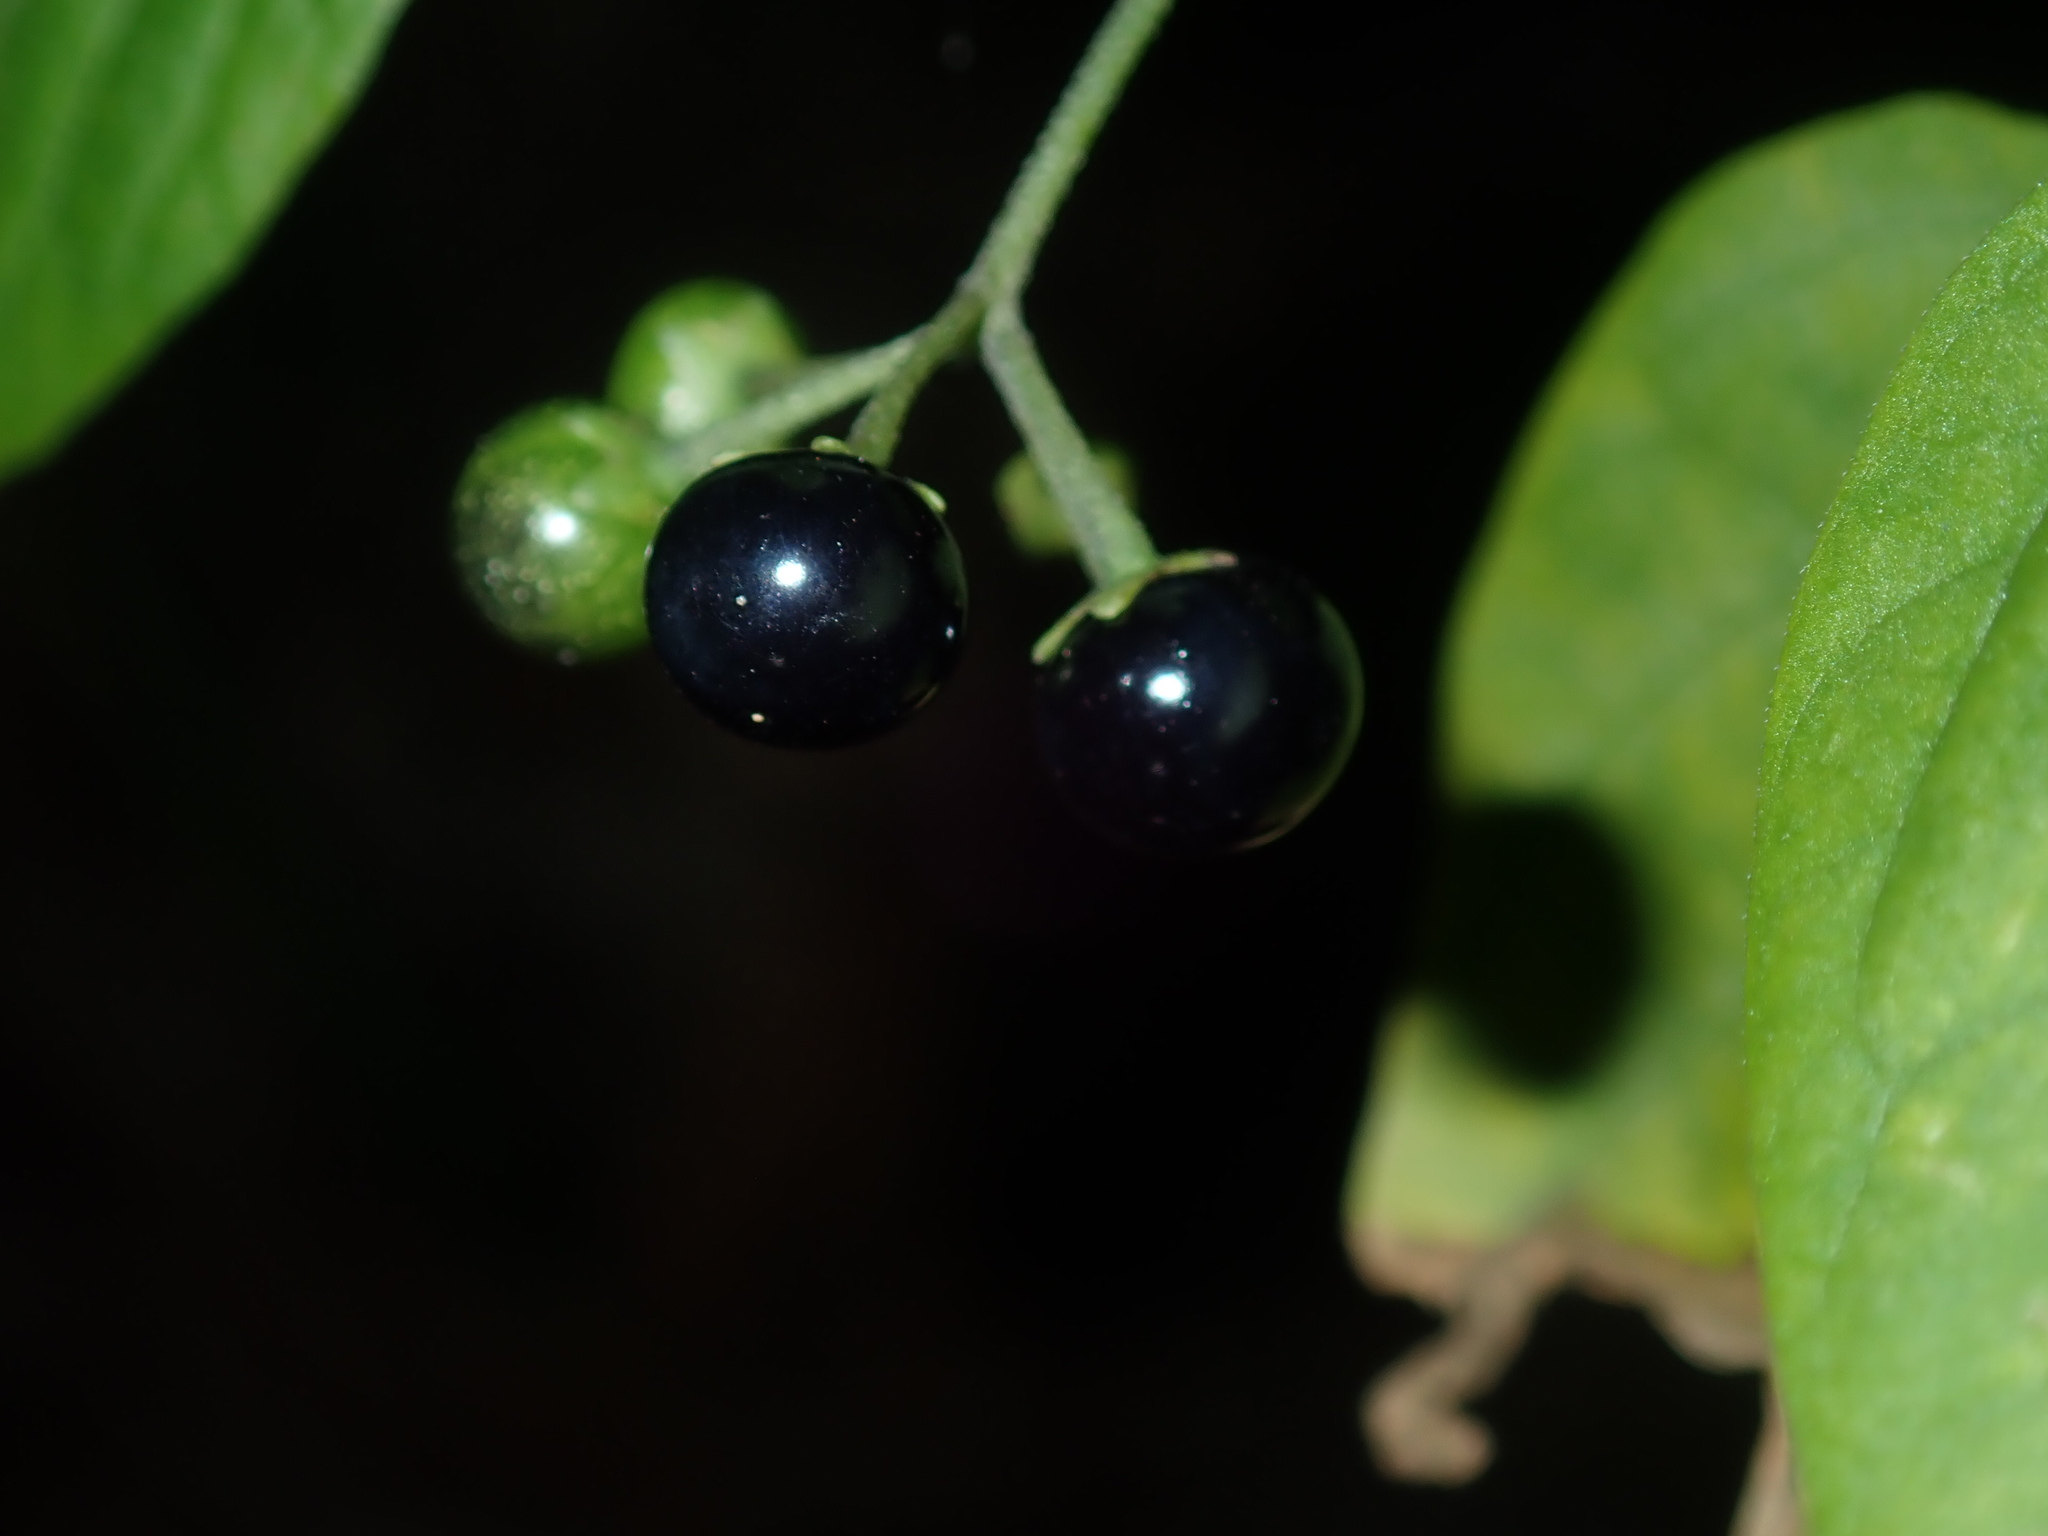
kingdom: Plantae
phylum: Tracheophyta
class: Magnoliopsida
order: Solanales
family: Solanaceae
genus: Solanum
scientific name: Solanum americanum
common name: American black nightshade
